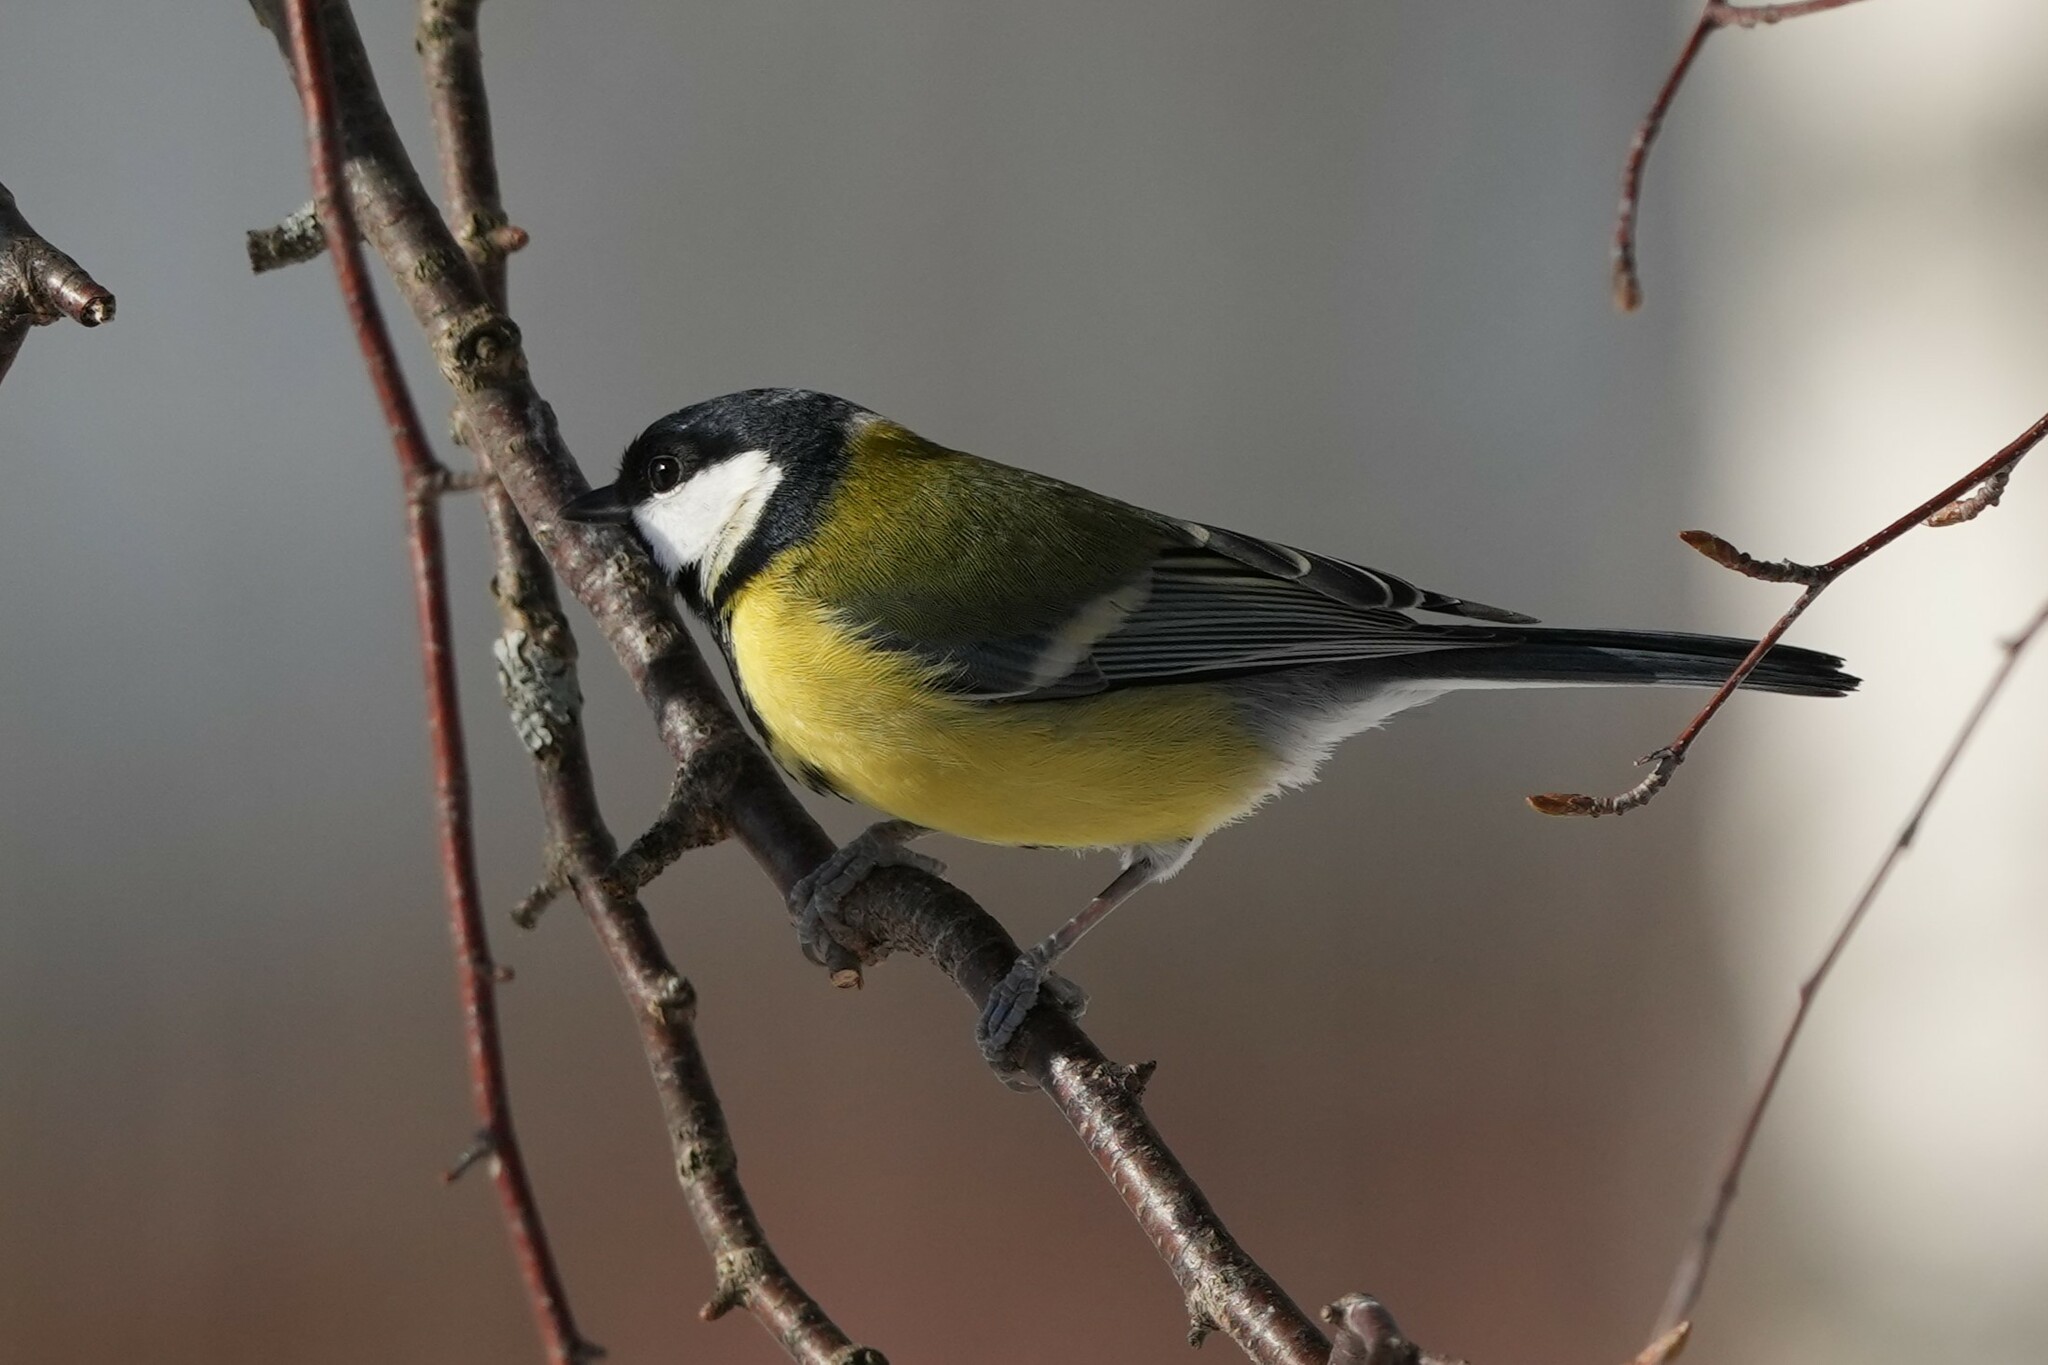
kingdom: Animalia
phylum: Chordata
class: Aves
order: Passeriformes
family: Paridae
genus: Parus
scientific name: Parus major
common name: Great tit
